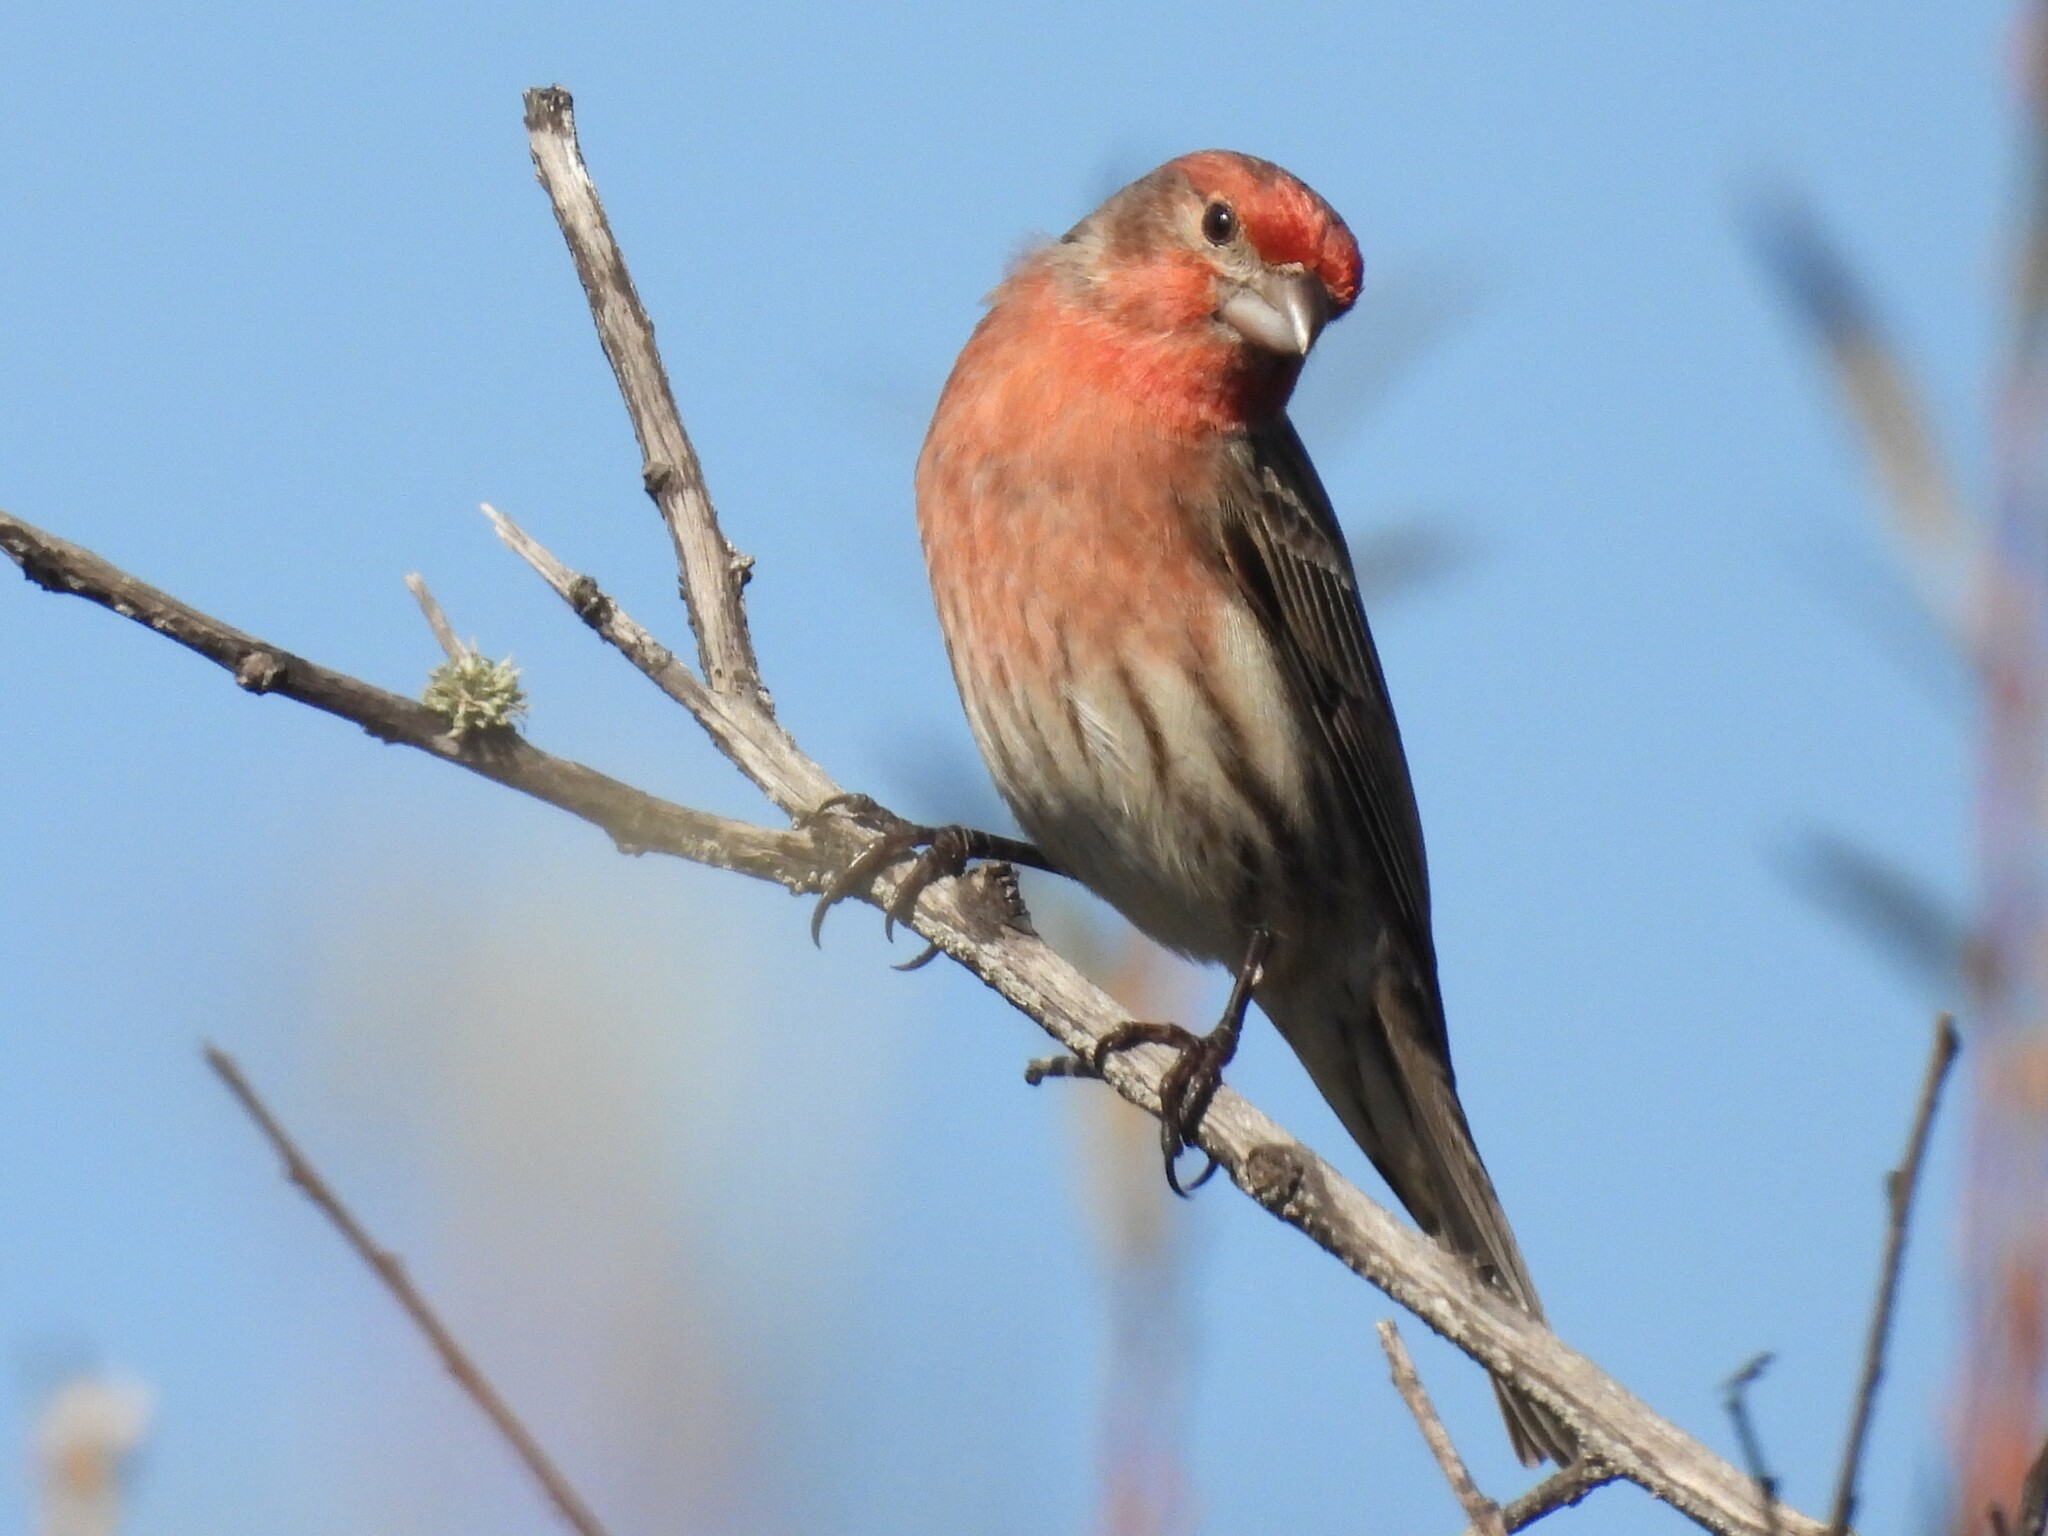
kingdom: Animalia
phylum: Chordata
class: Aves
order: Passeriformes
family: Fringillidae
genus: Haemorhous
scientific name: Haemorhous mexicanus
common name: House finch
